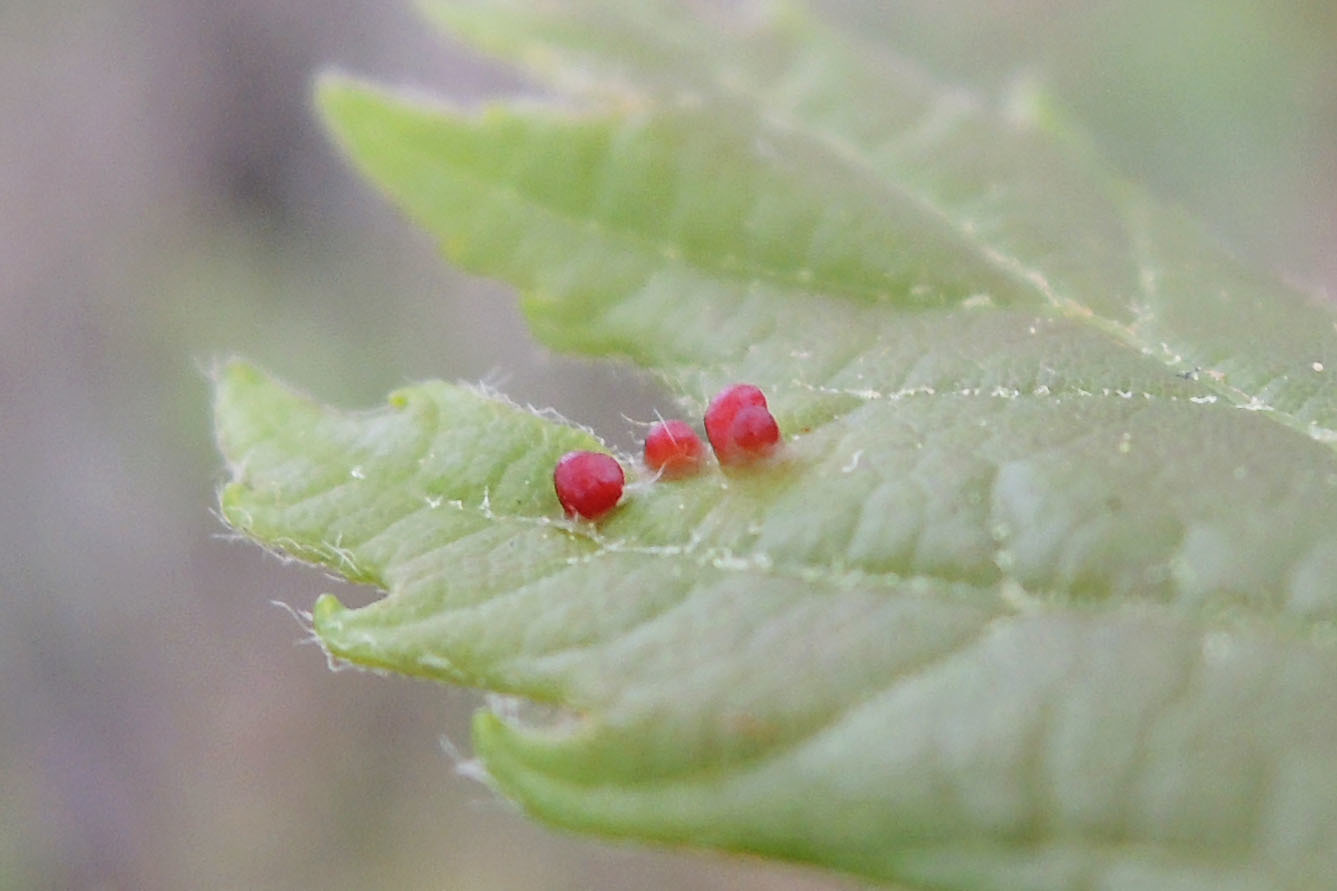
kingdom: Animalia
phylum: Arthropoda
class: Arachnida
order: Trombidiformes
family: Eriophyidae
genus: Vasates
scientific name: Vasates quadripedes
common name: Maple bladder gall mite
